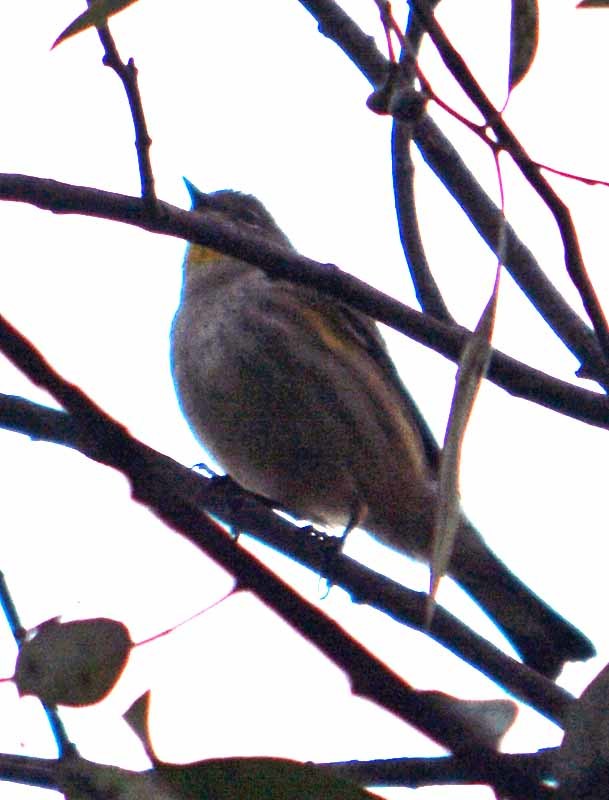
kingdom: Animalia
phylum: Chordata
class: Aves
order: Passeriformes
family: Parulidae
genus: Setophaga
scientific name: Setophaga auduboni
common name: Audubon's warbler
